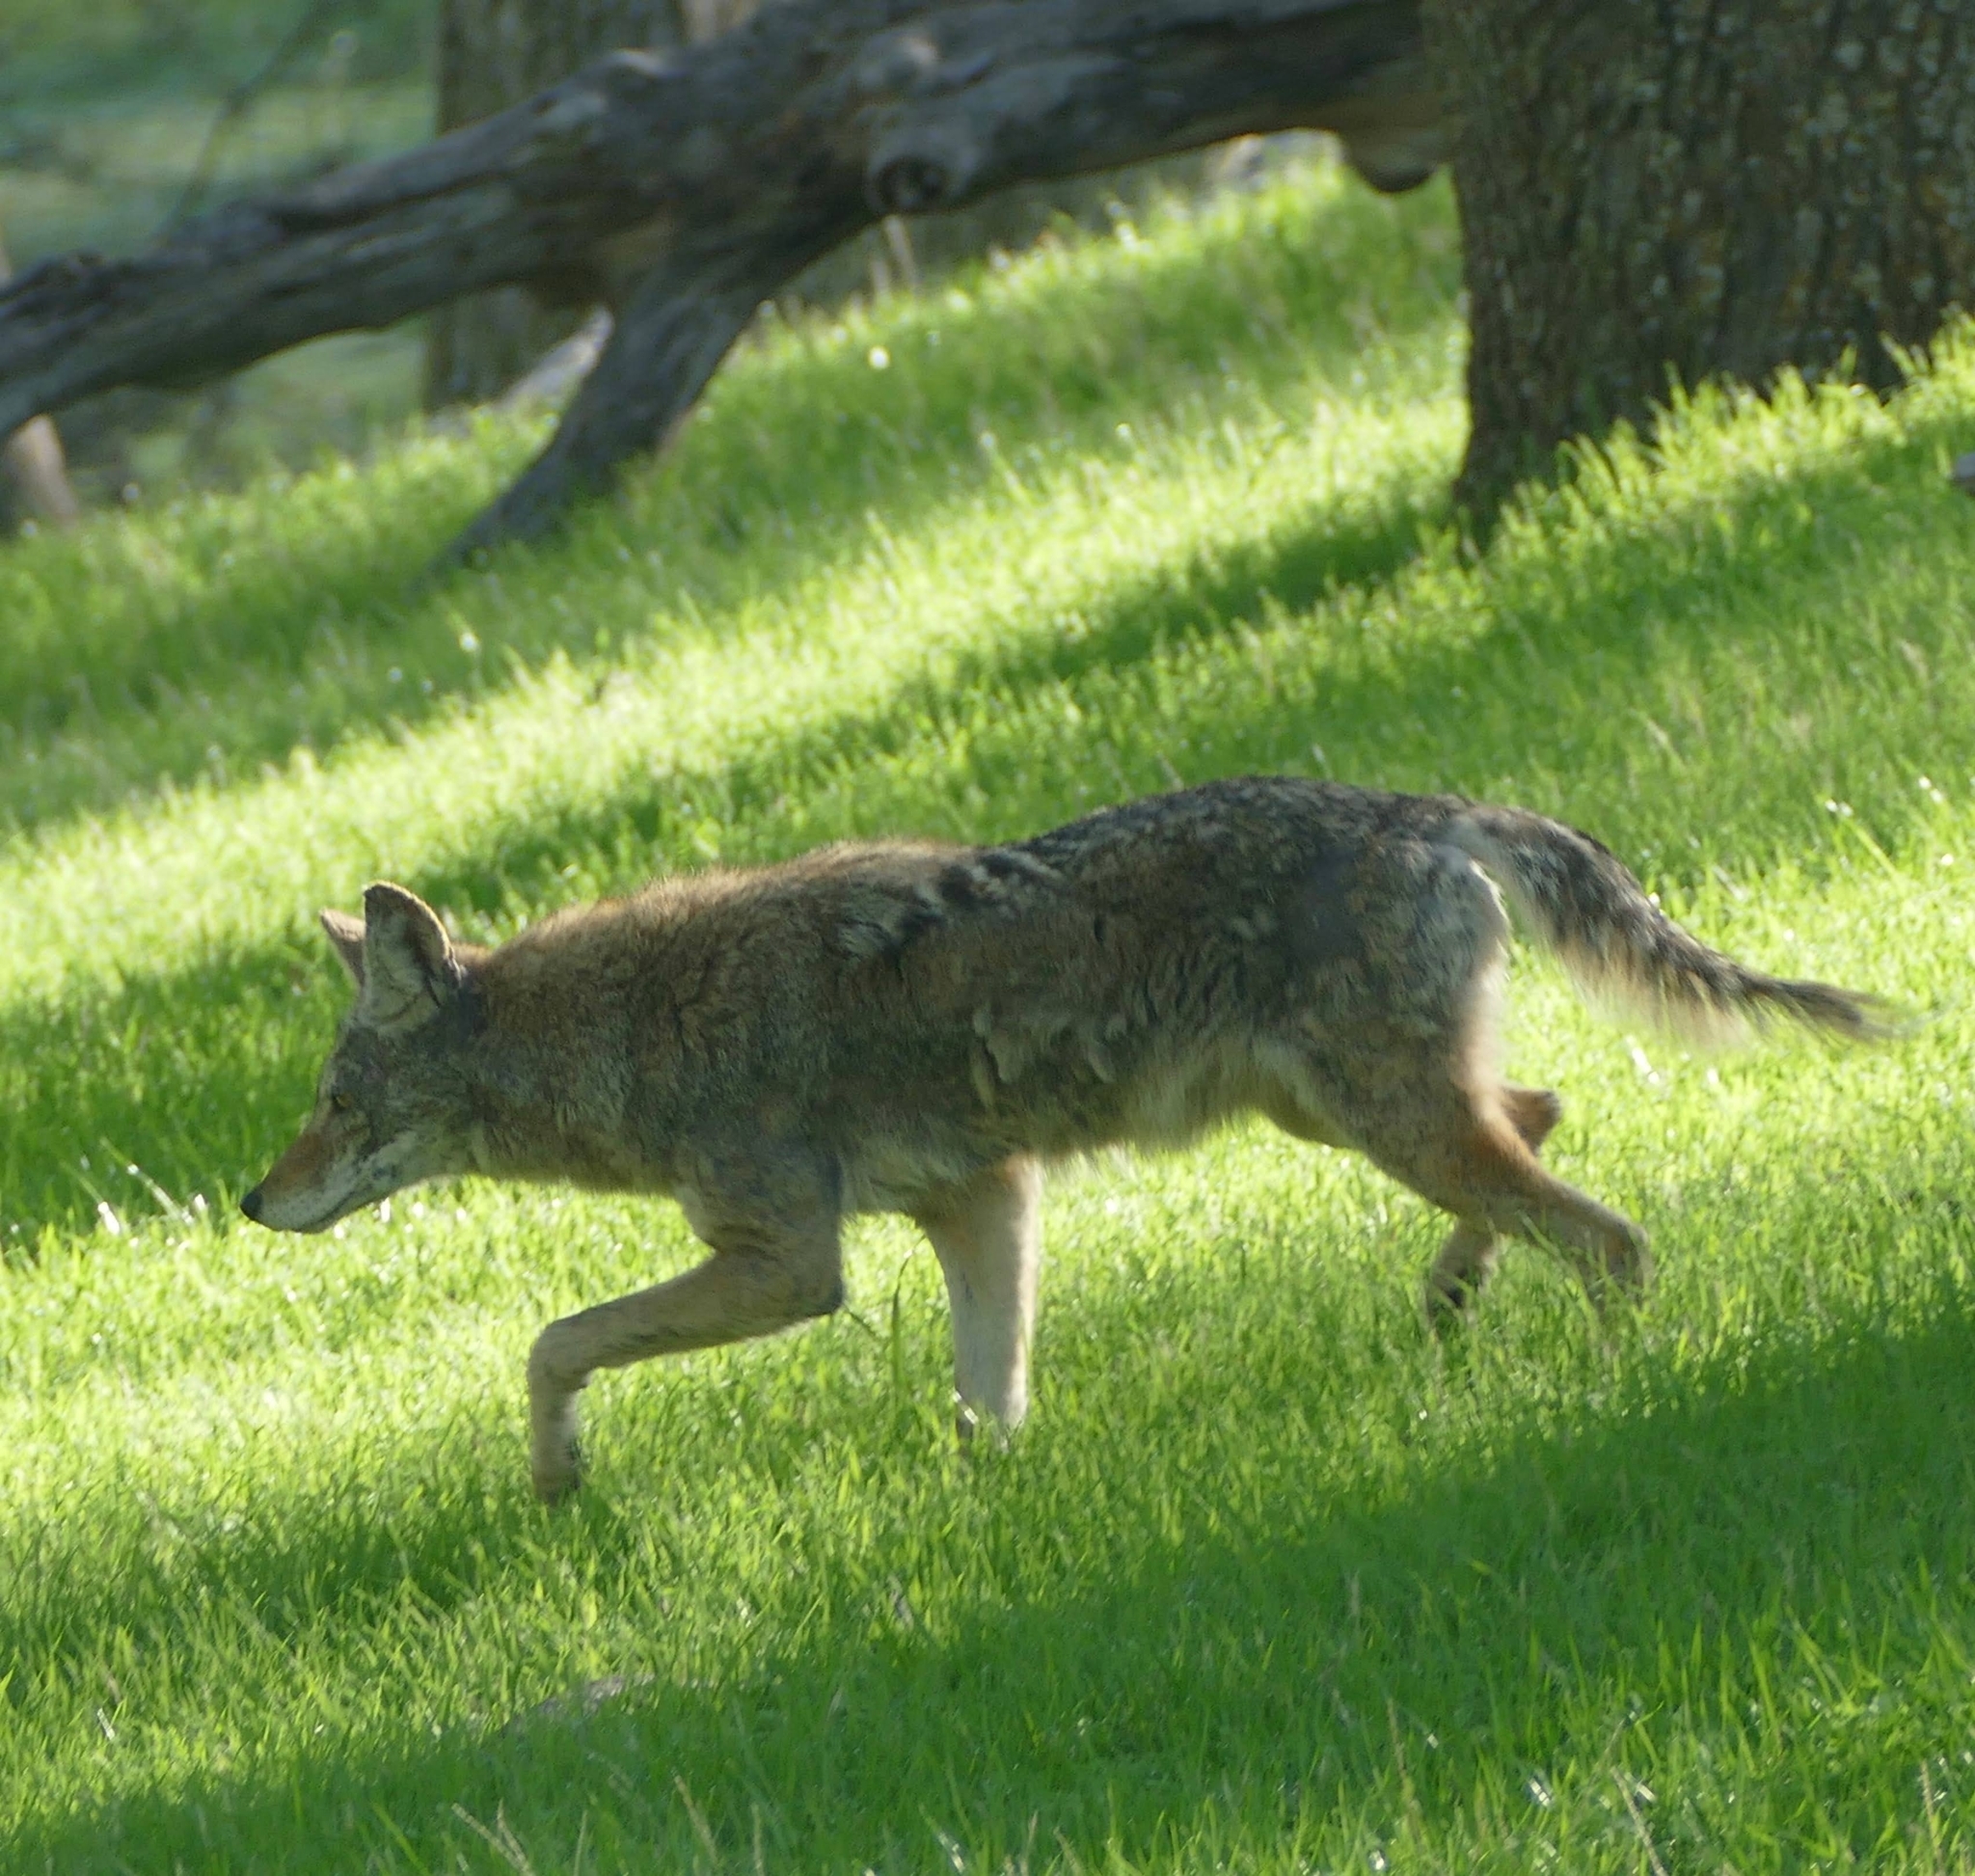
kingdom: Animalia
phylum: Chordata
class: Mammalia
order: Carnivora
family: Canidae
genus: Canis
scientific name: Canis latrans
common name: Coyote
